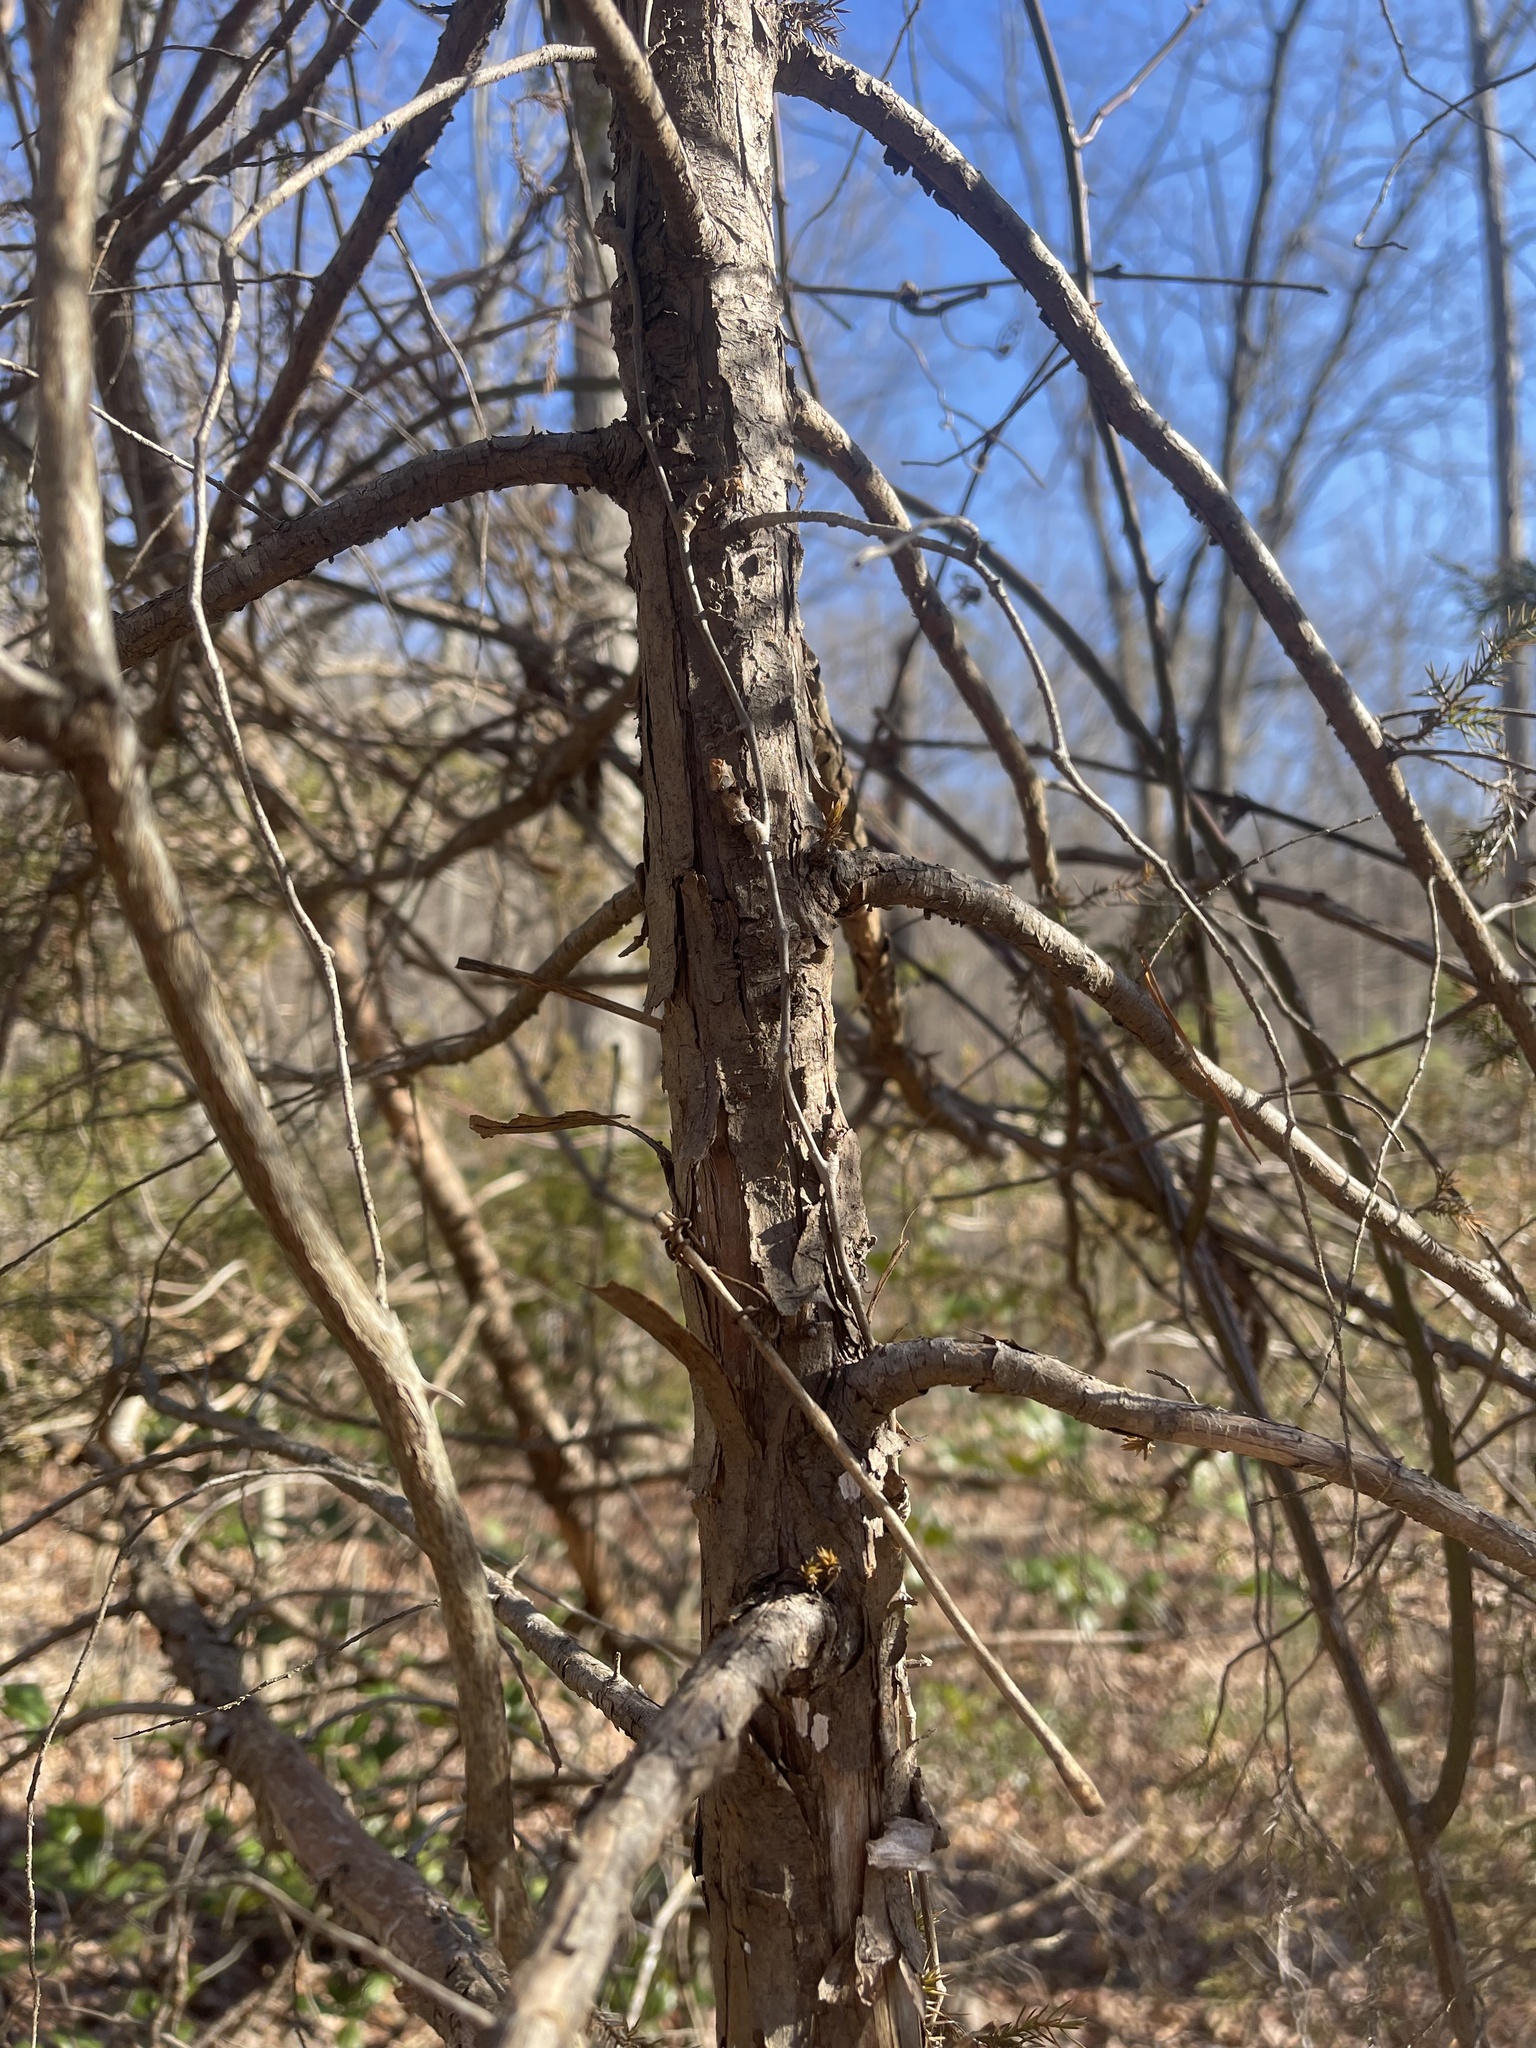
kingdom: Plantae
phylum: Tracheophyta
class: Pinopsida
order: Pinales
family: Cupressaceae
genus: Juniperus
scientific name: Juniperus virginiana
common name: Red juniper
